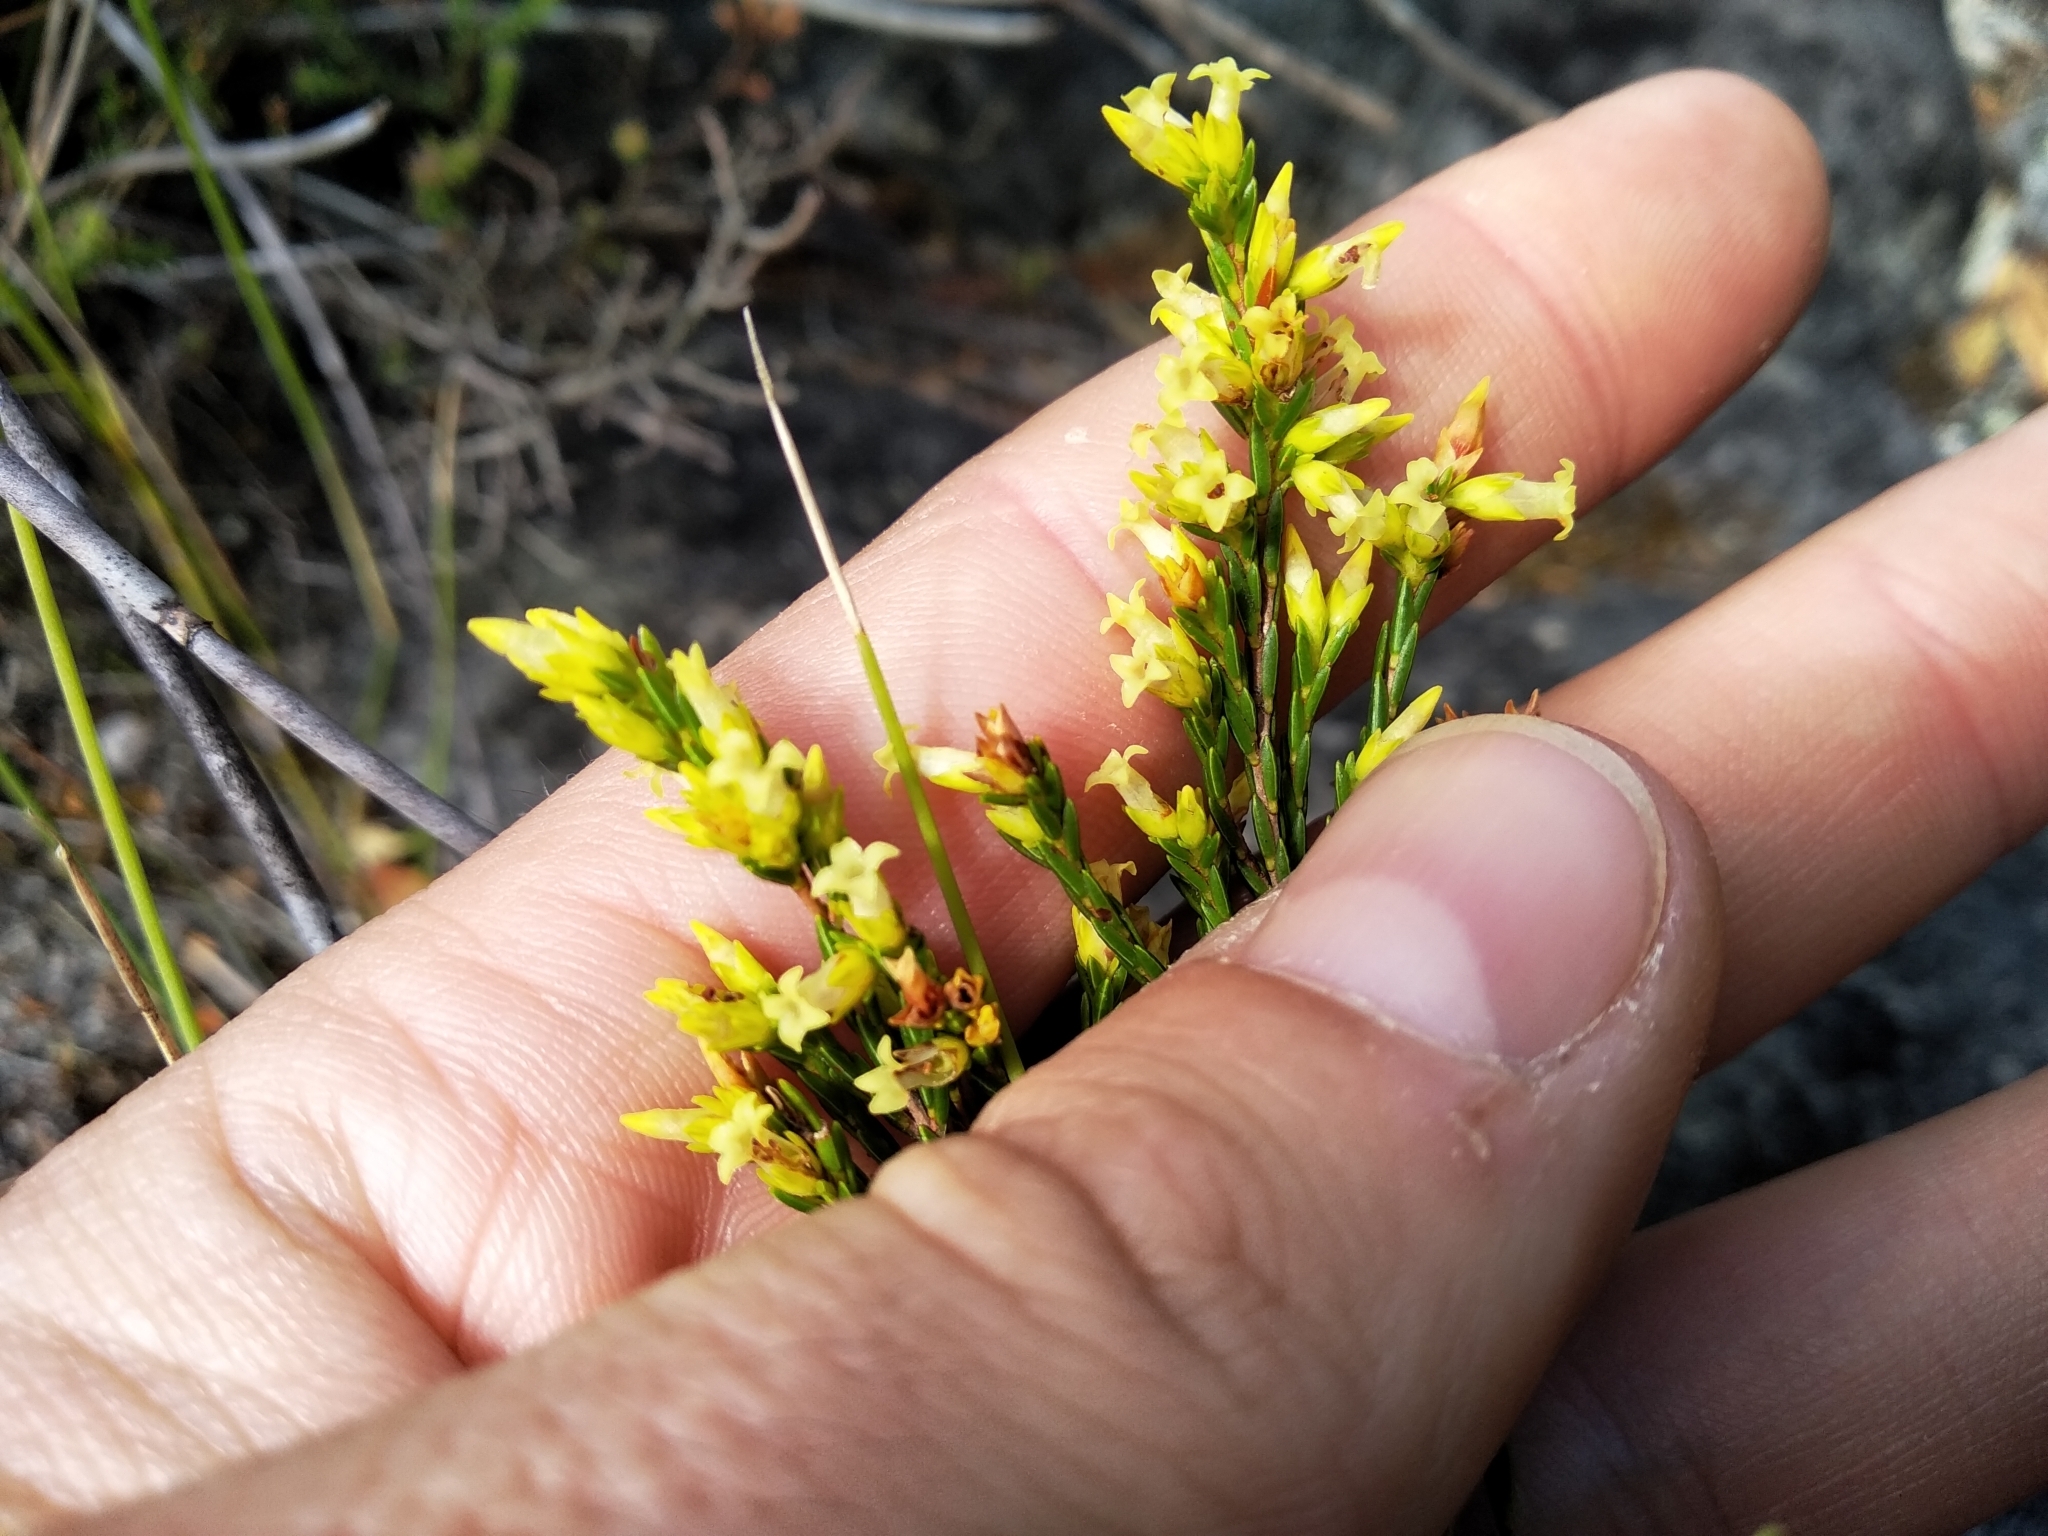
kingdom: Plantae
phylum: Tracheophyta
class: Magnoliopsida
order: Ericales
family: Ericaceae
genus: Erica
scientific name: Erica lutea
